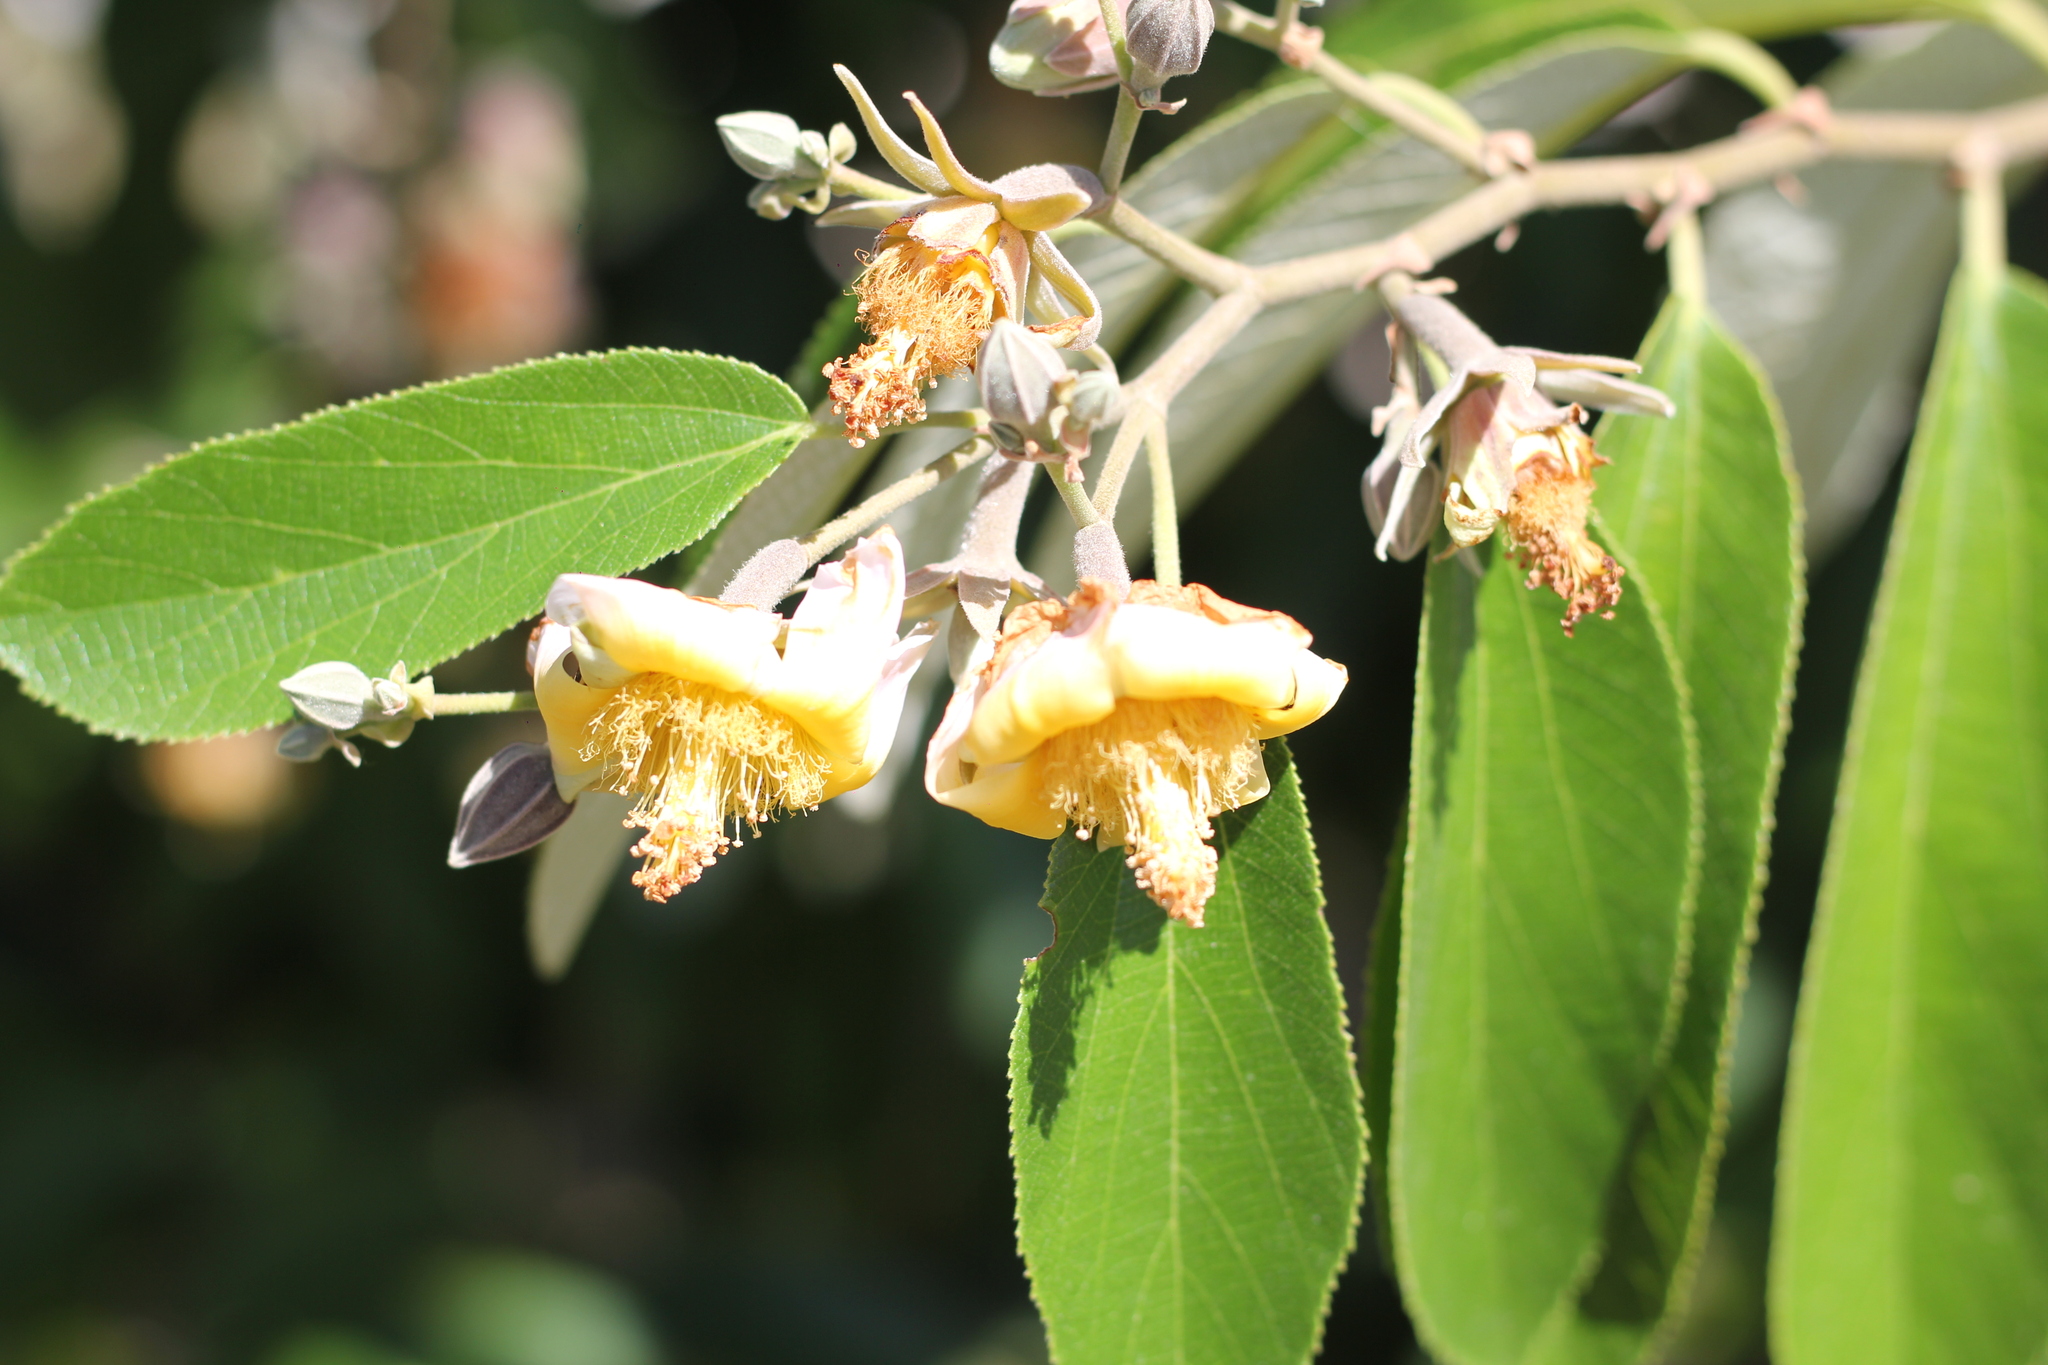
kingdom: Plantae
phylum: Tracheophyta
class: Magnoliopsida
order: Malvales
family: Malvaceae
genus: Luehea
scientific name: Luehea divaricata
